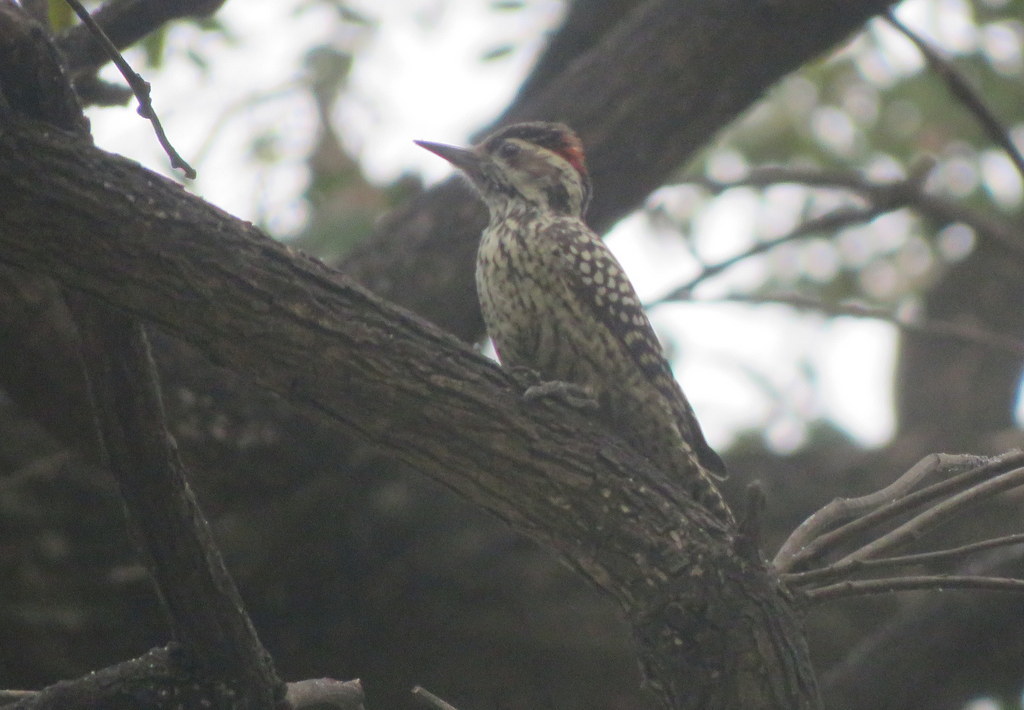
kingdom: Animalia
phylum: Chordata
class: Aves
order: Piciformes
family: Picidae
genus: Veniliornis
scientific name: Veniliornis mixtus
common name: Checkered woodpecker
